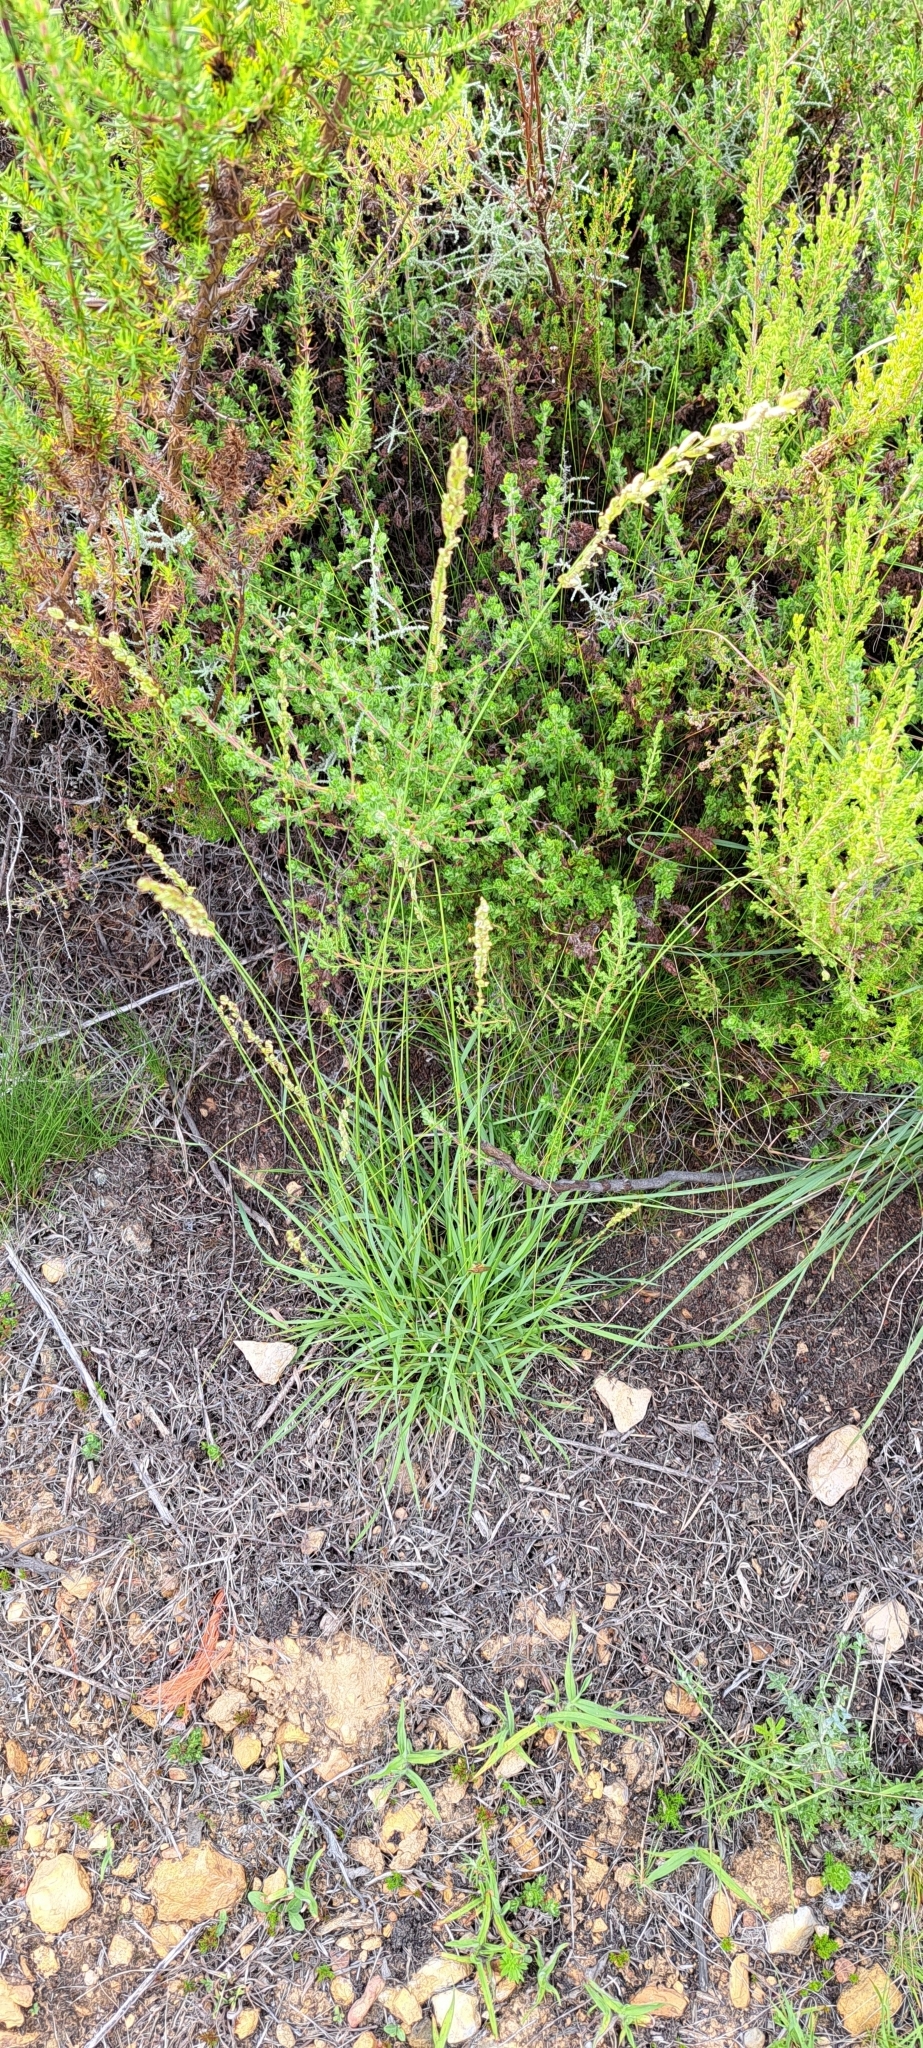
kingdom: Plantae
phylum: Tracheophyta
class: Liliopsida
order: Poales
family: Poaceae
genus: Eragrostis
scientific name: Eragrostis capensis
